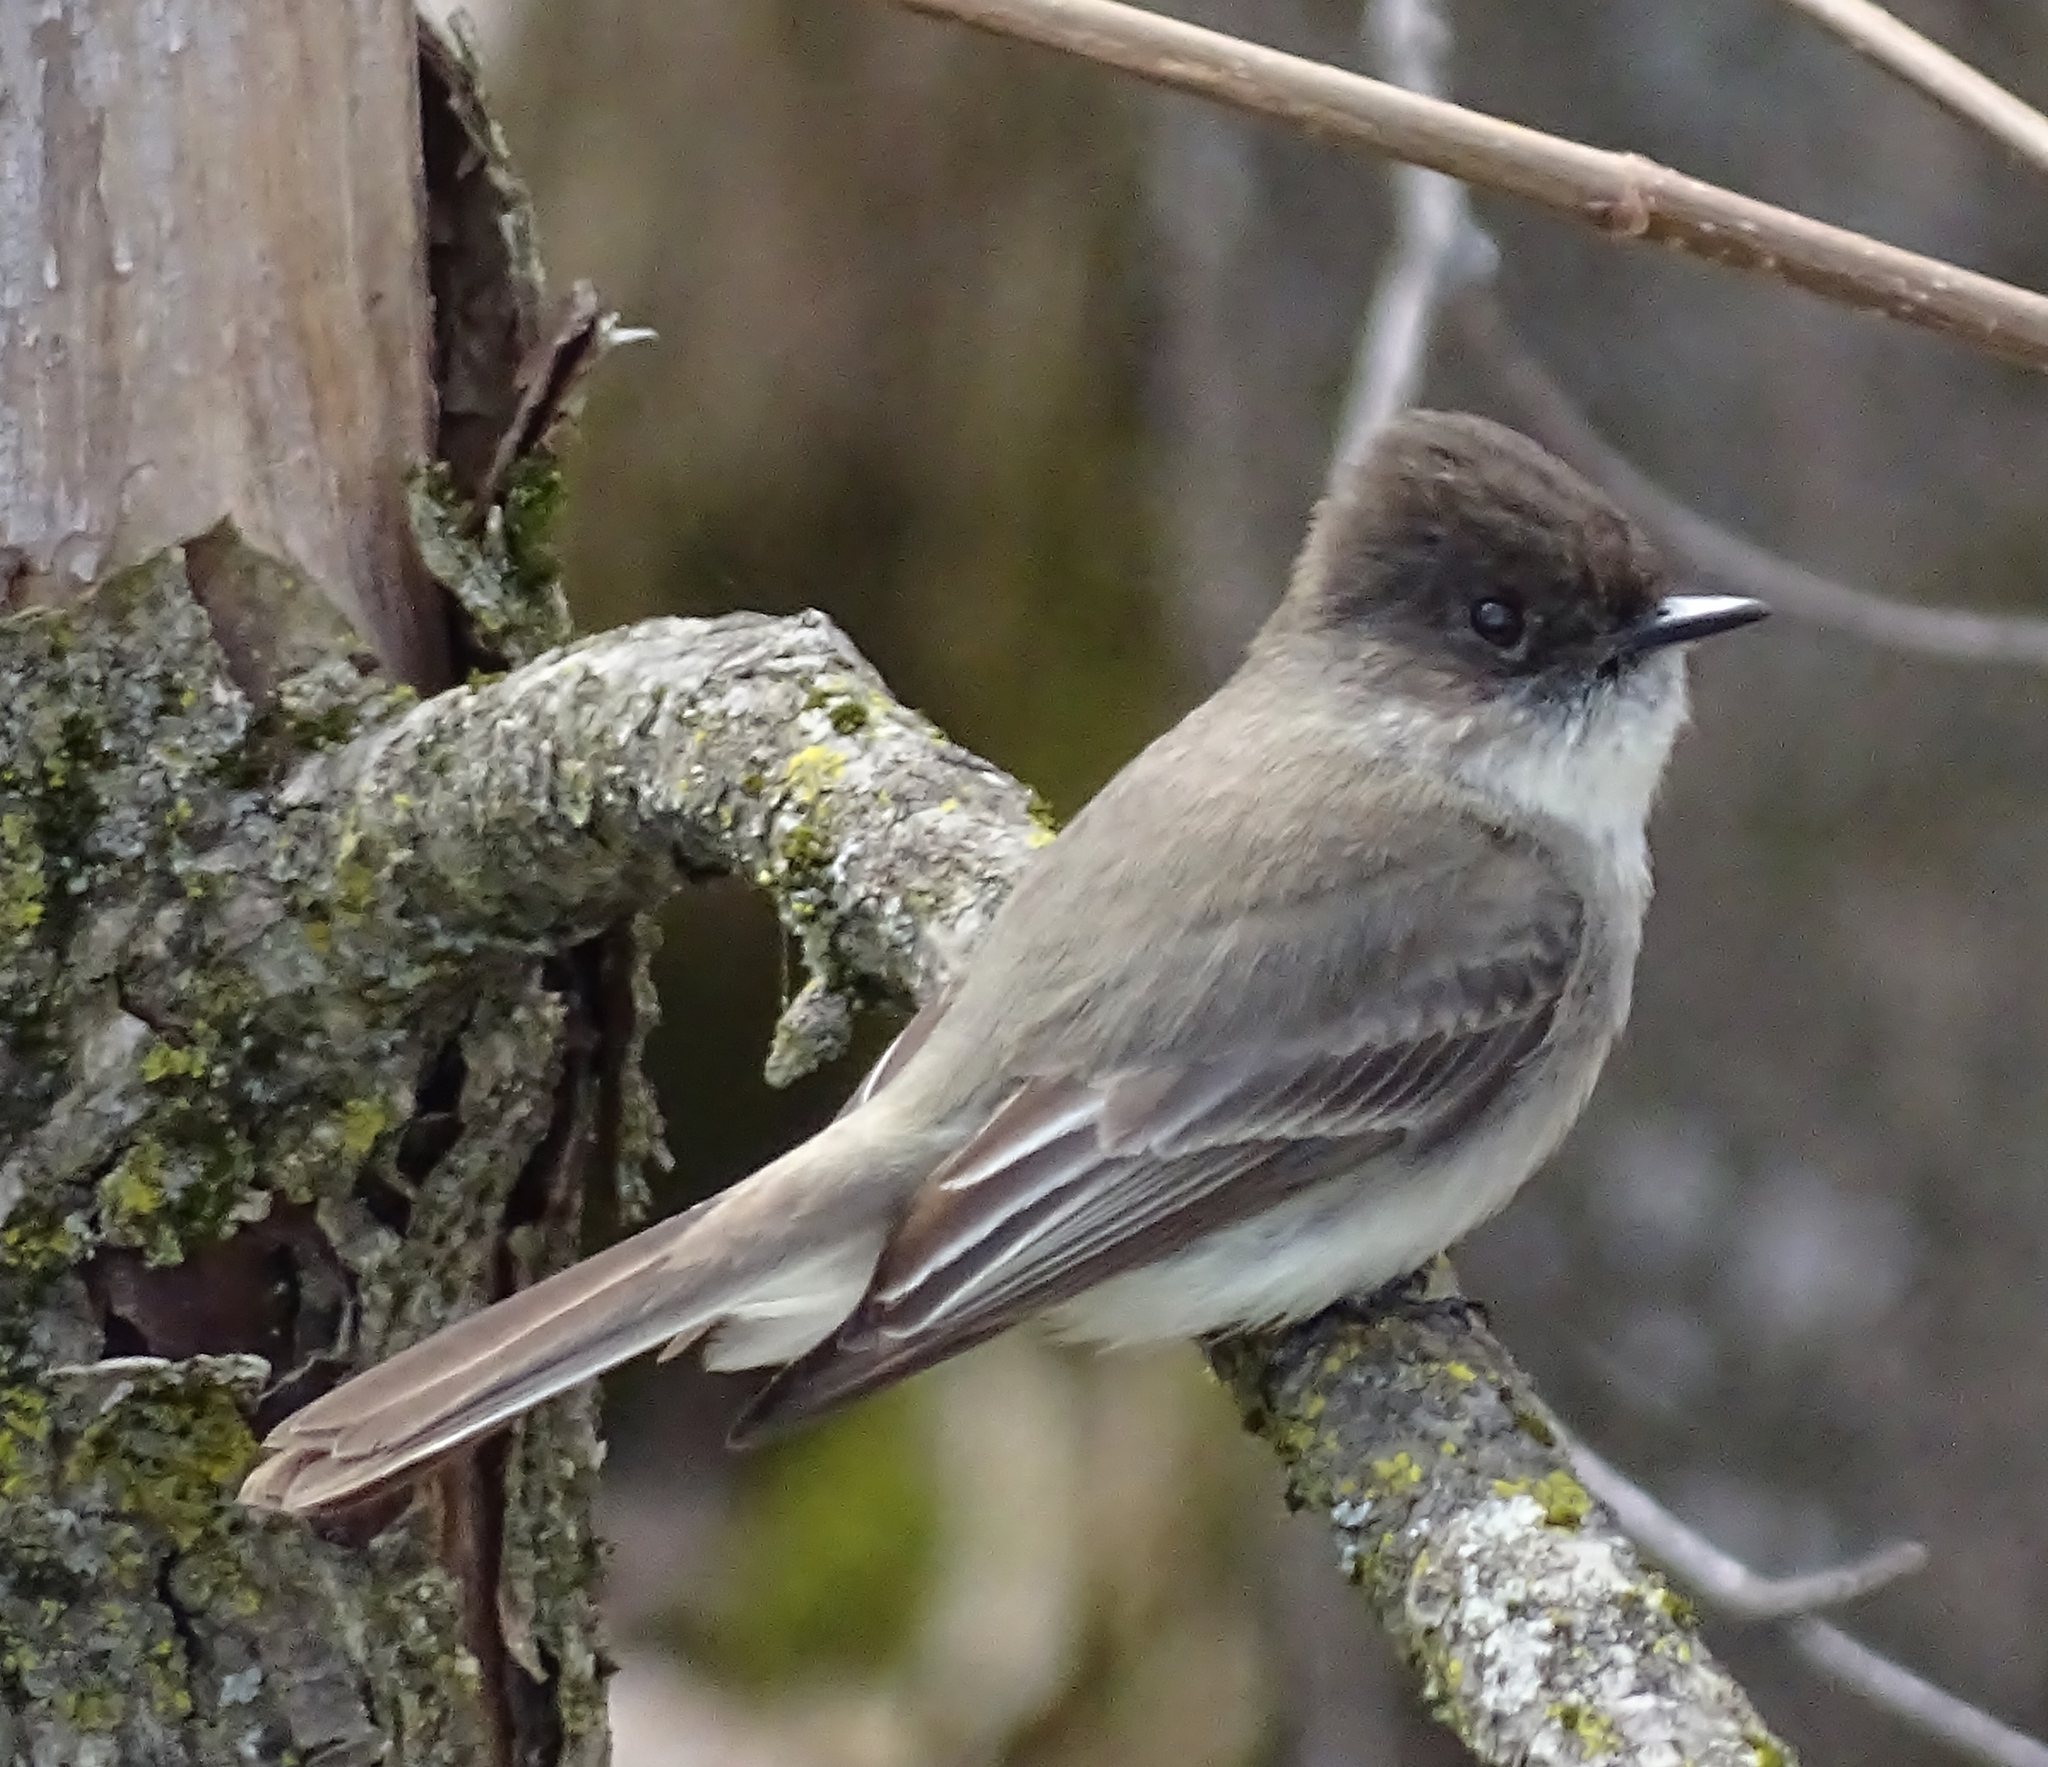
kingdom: Animalia
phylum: Chordata
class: Aves
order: Passeriformes
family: Tyrannidae
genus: Sayornis
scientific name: Sayornis phoebe
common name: Eastern phoebe
